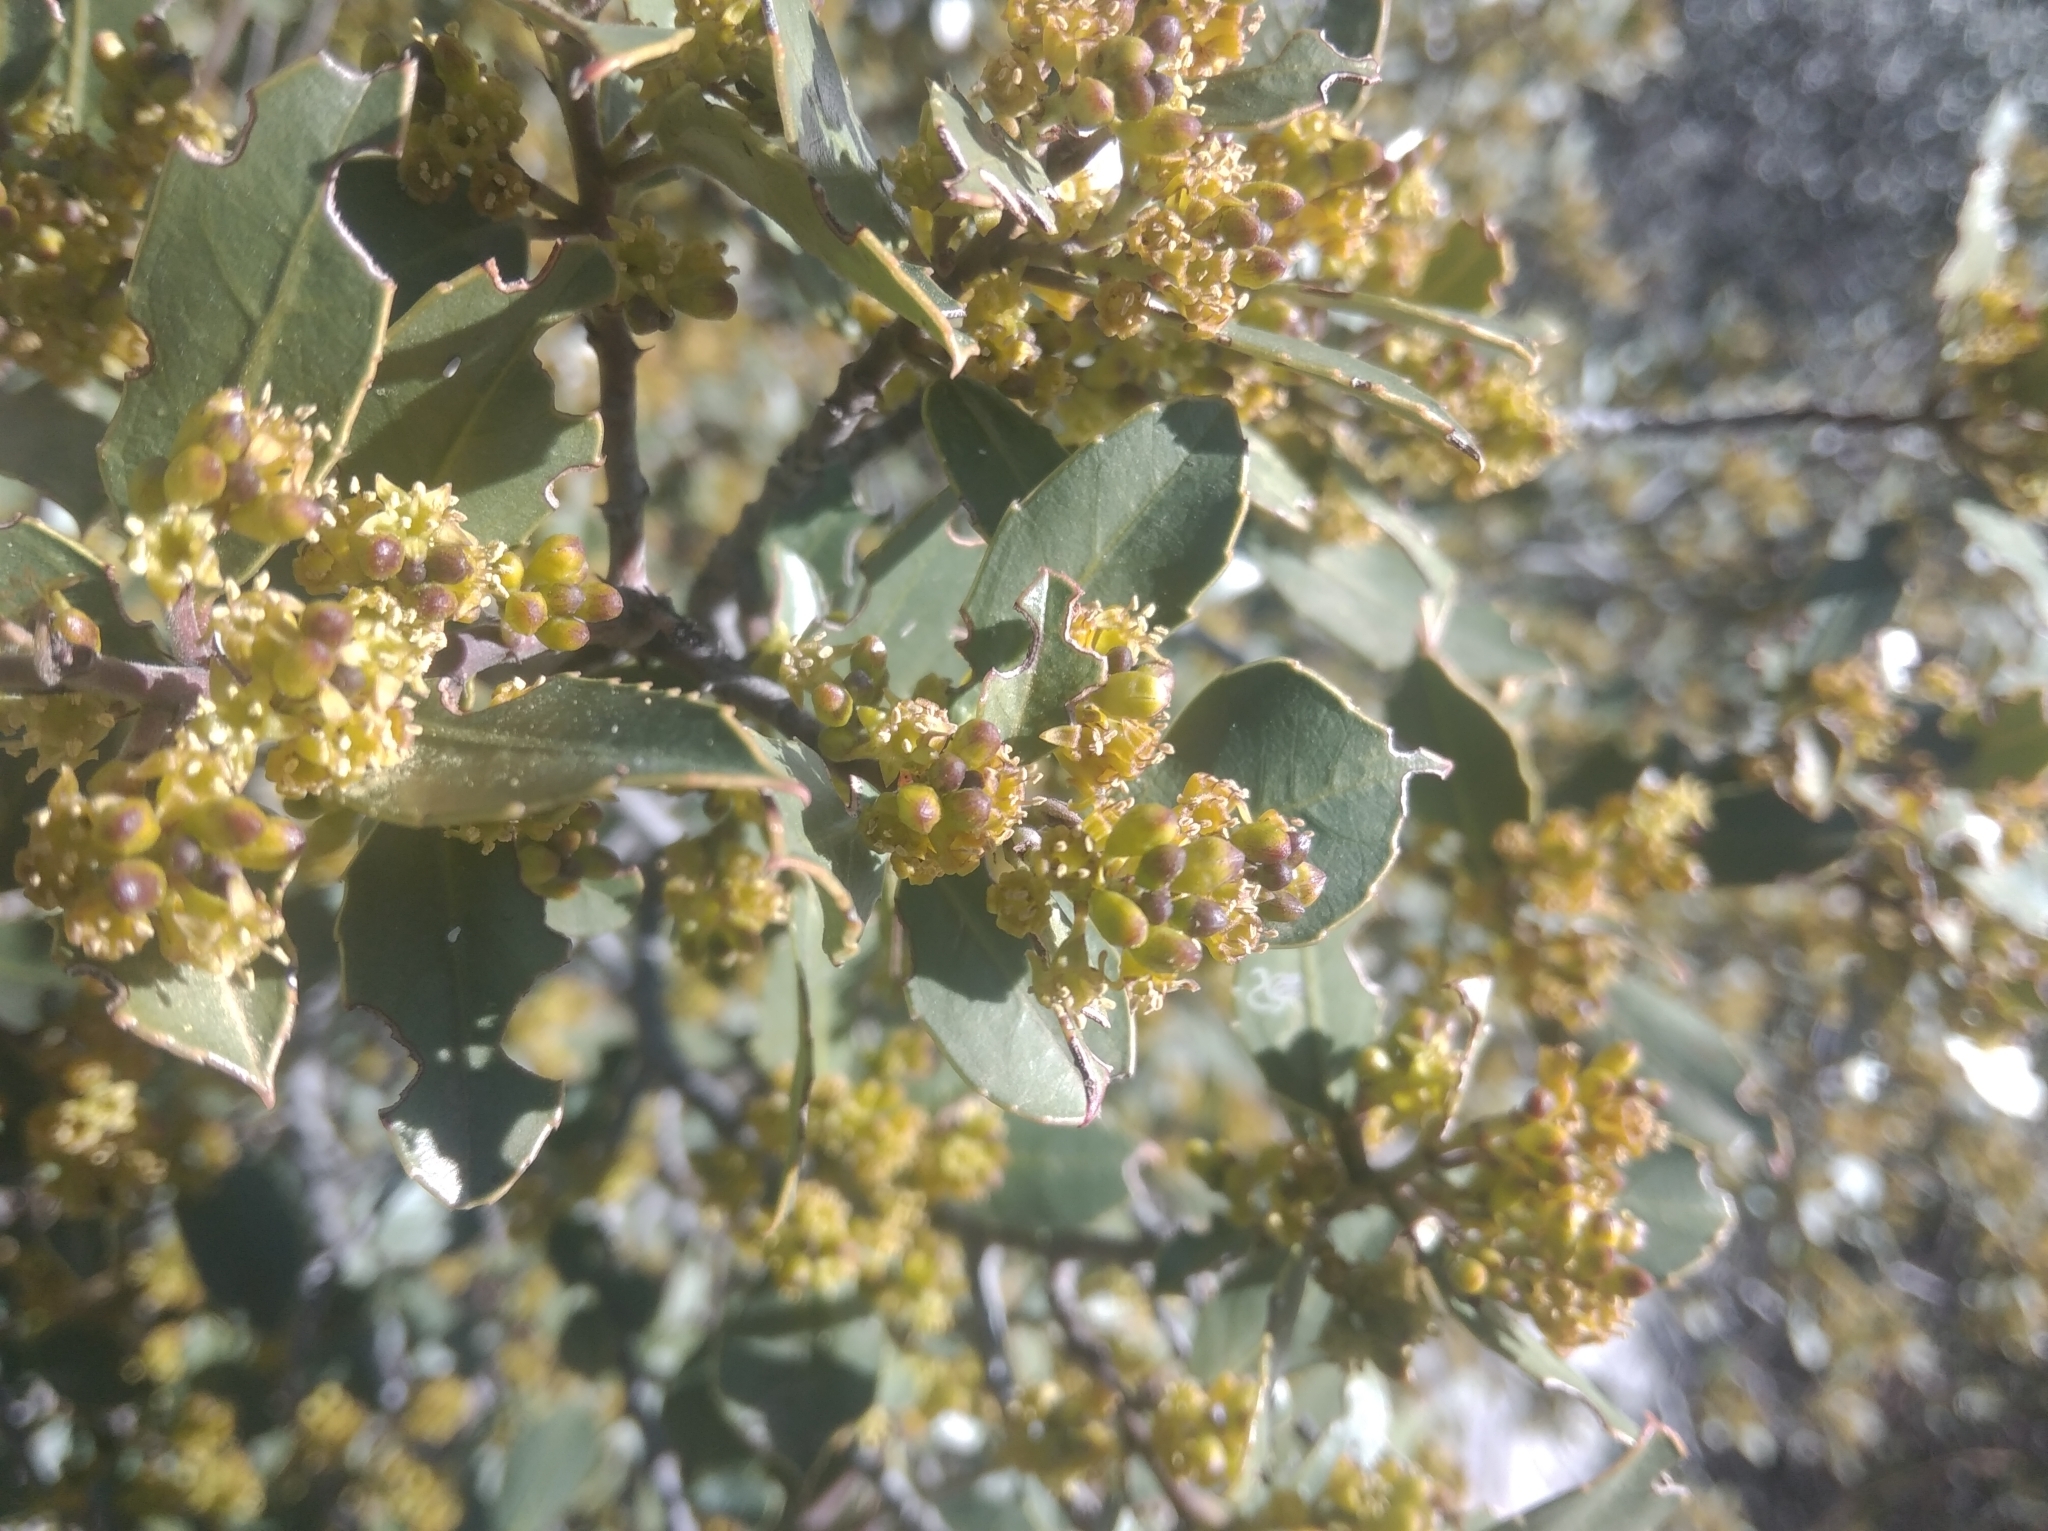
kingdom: Plantae
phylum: Tracheophyta
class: Magnoliopsida
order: Rosales
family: Rhamnaceae
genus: Rhamnus
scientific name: Rhamnus alaternus
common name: Mediterranean buckthorn
